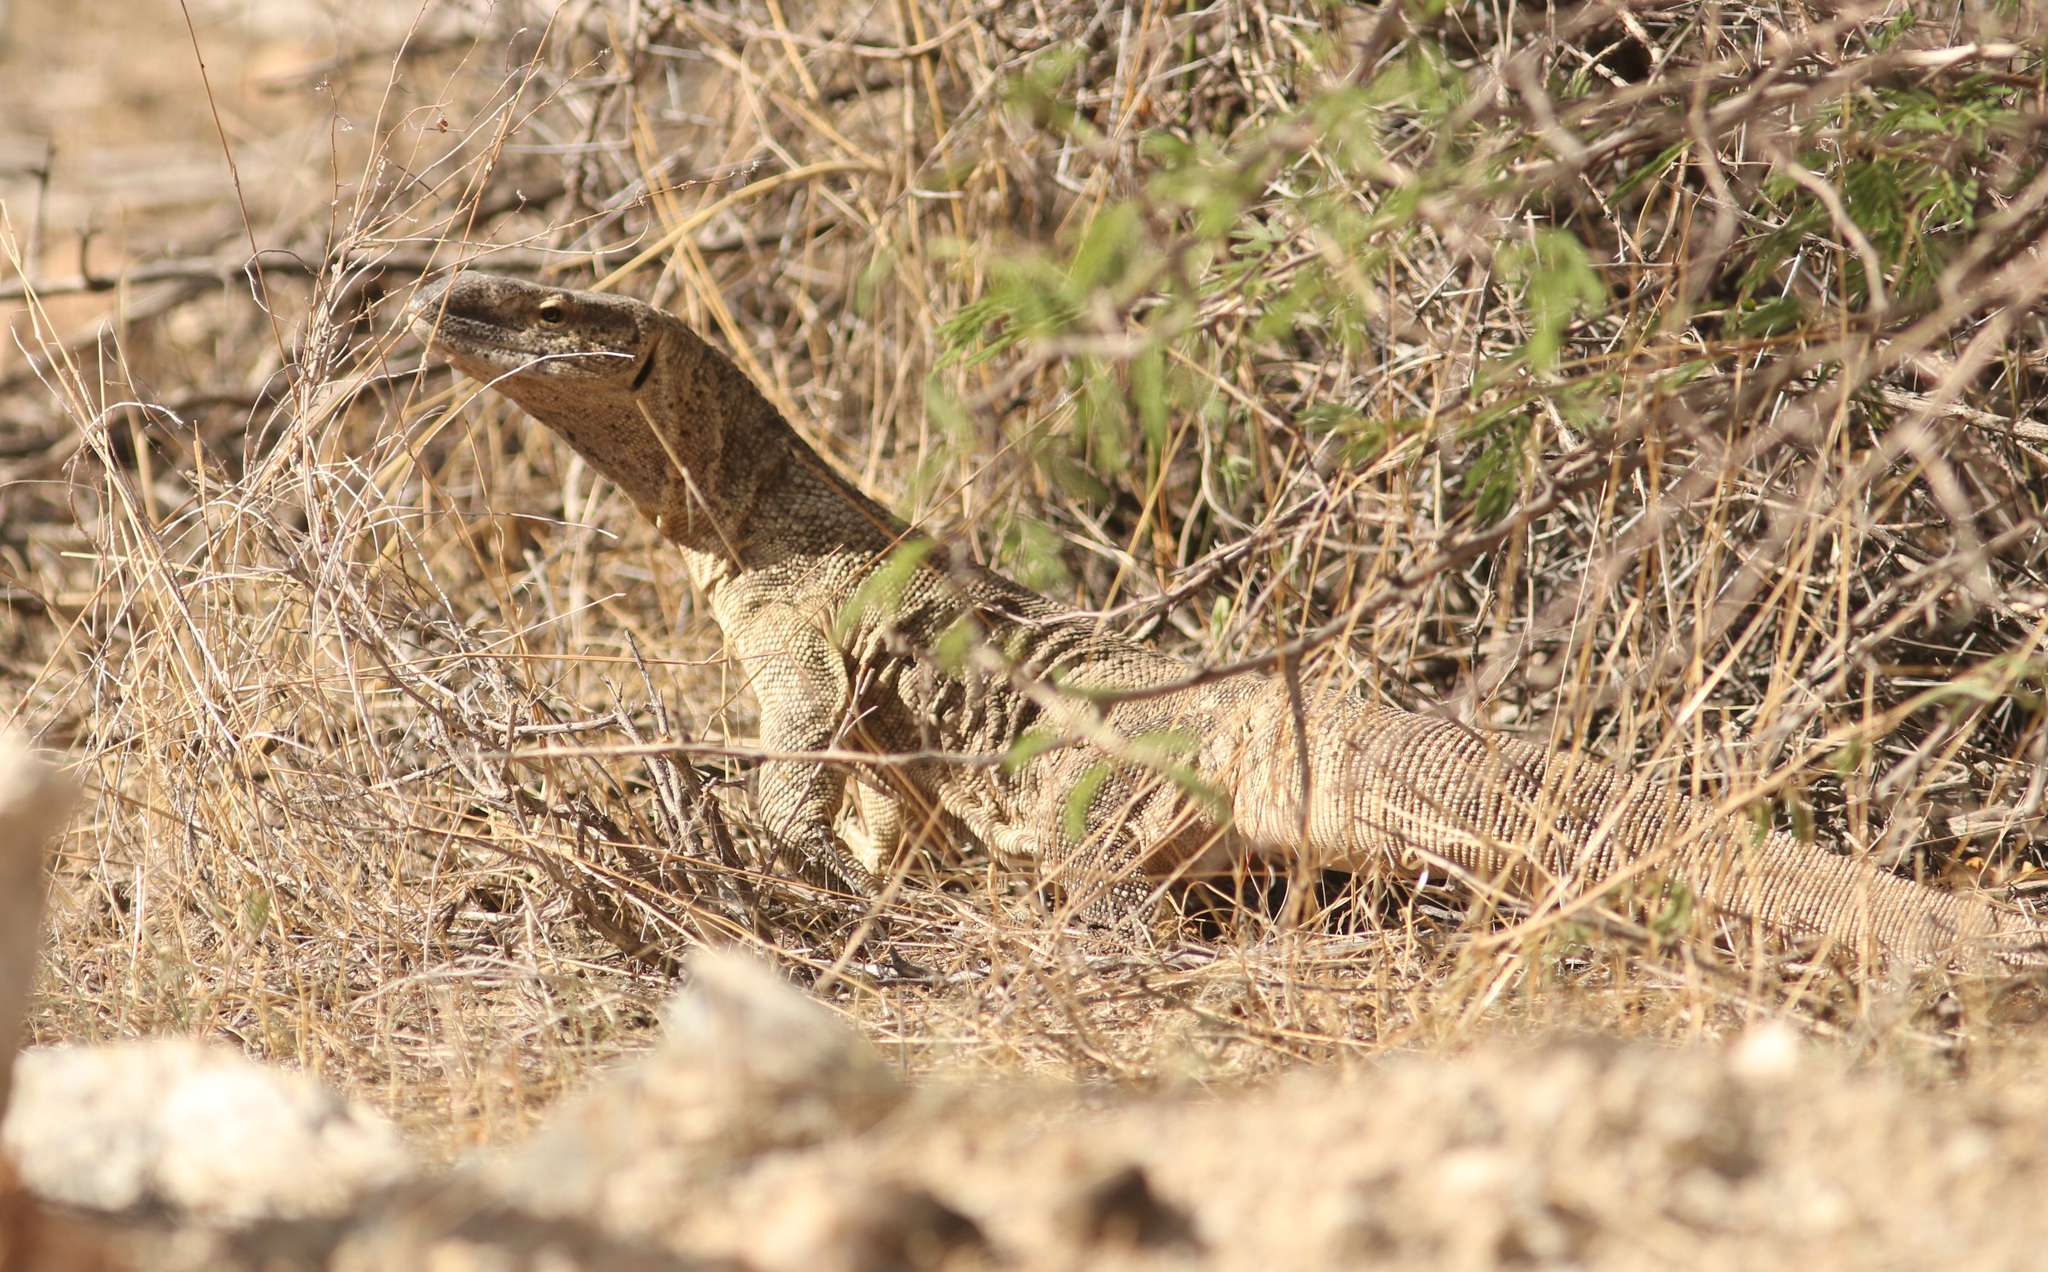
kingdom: Animalia
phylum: Chordata
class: Squamata
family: Varanidae
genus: Varanus
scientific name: Varanus albigularis
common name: White-throated monitor
